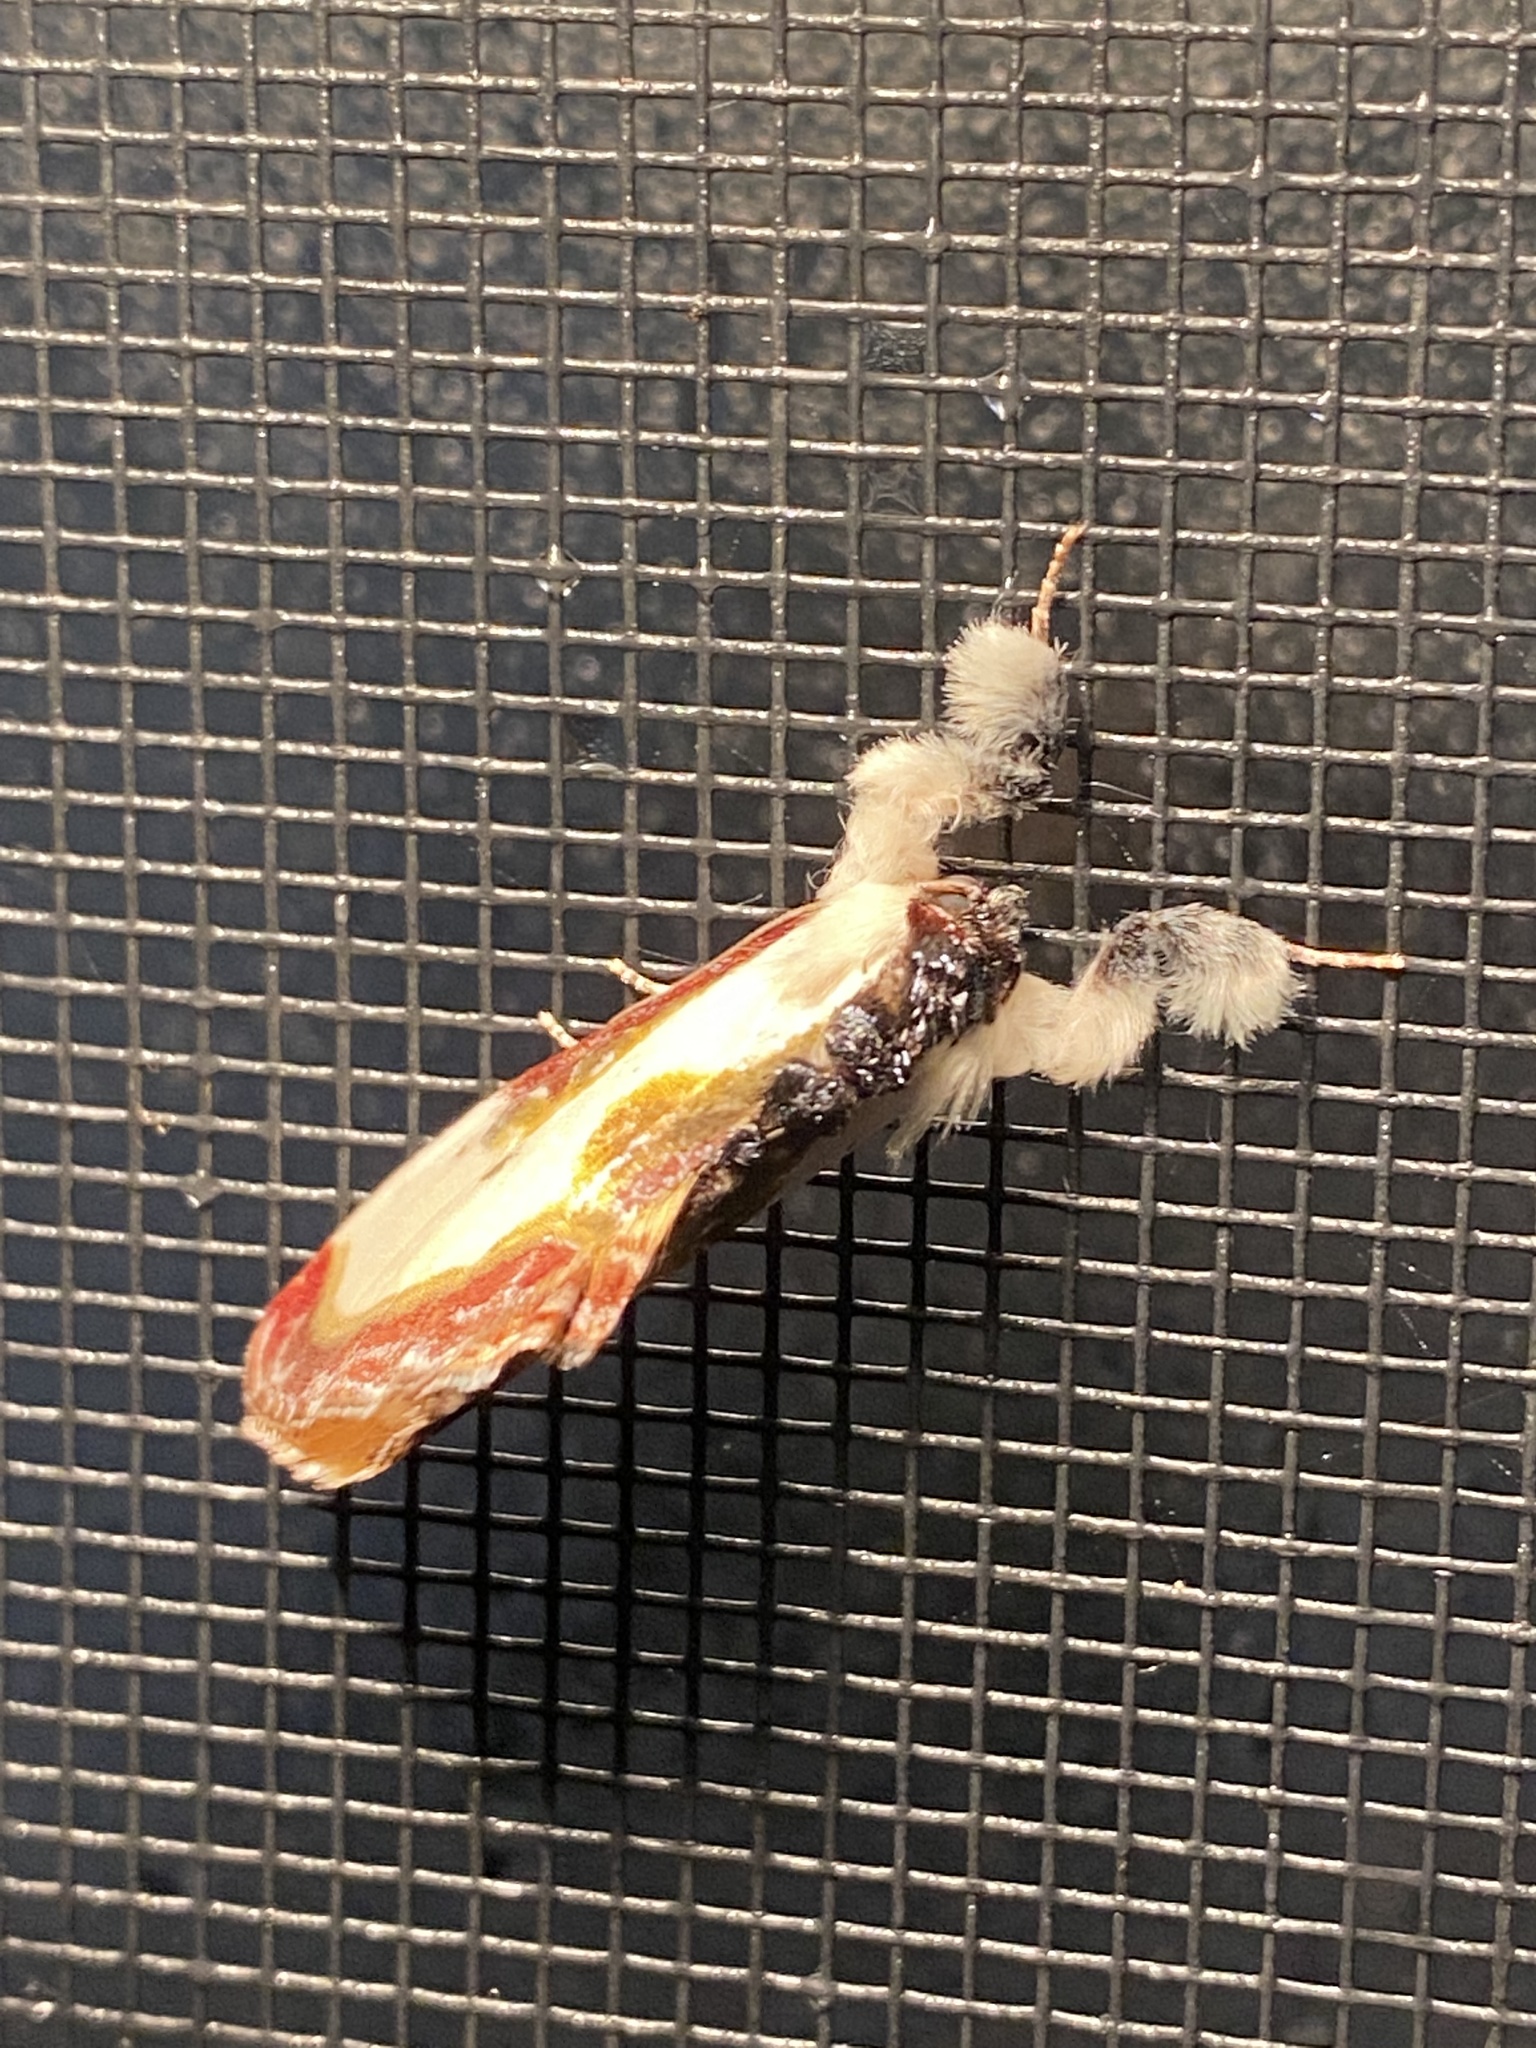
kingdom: Animalia
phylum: Arthropoda
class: Insecta
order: Lepidoptera
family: Noctuidae
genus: Eudryas
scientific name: Eudryas grata
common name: Beautiful wood-nymph
